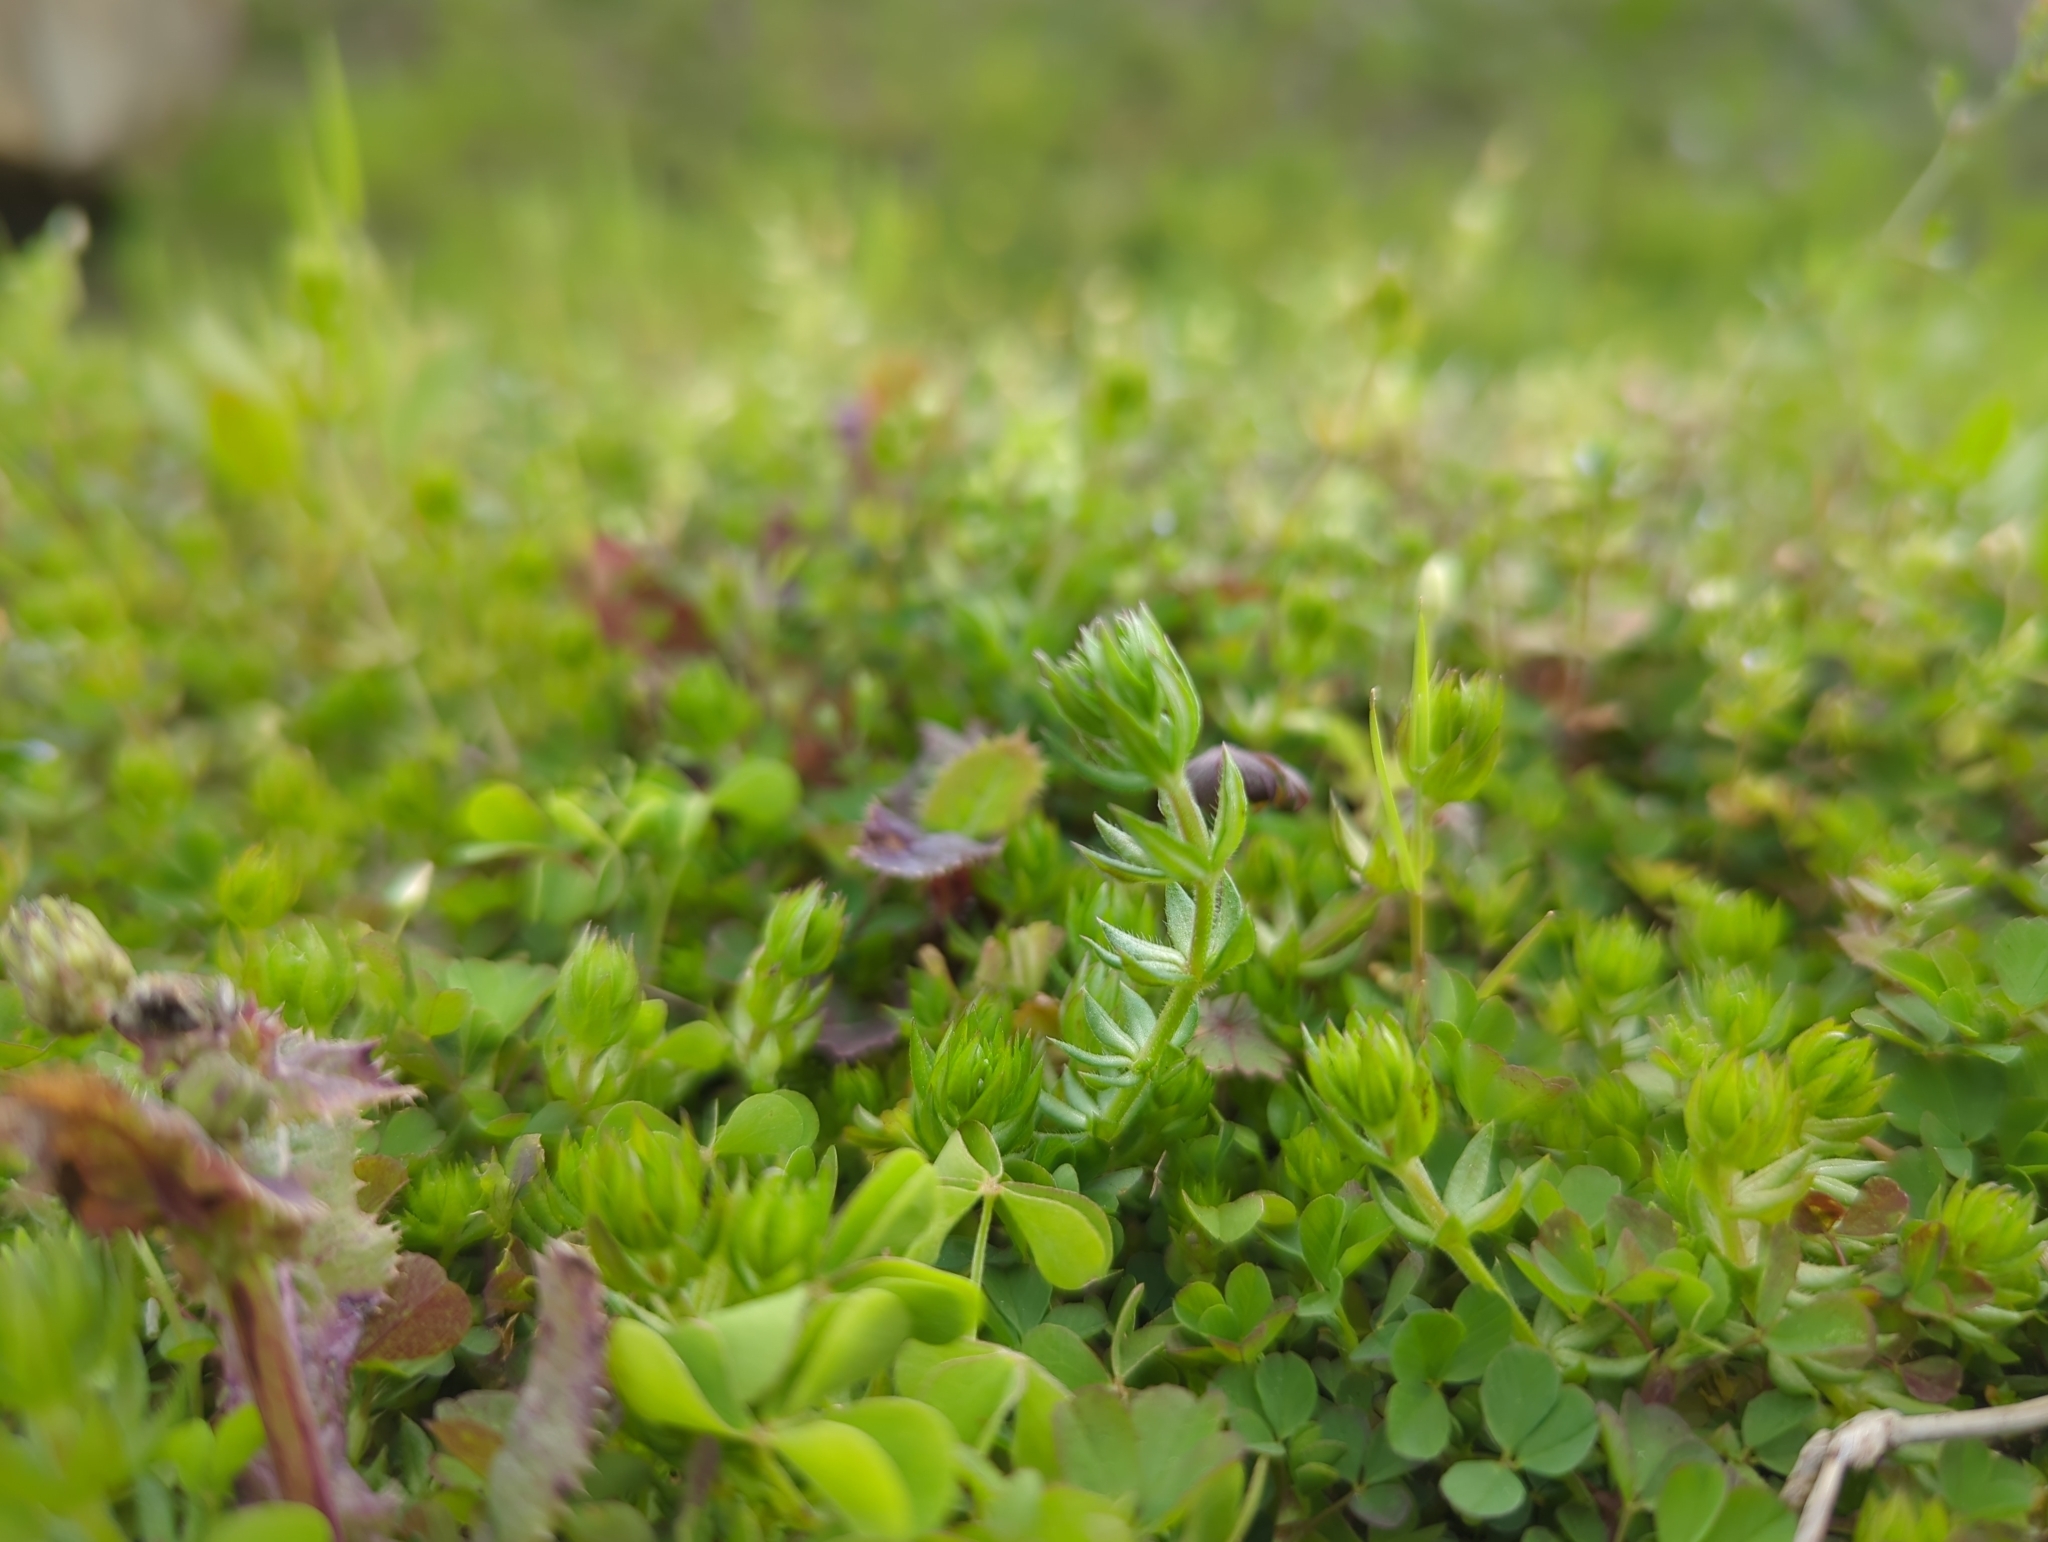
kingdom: Plantae
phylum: Tracheophyta
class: Magnoliopsida
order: Gentianales
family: Rubiaceae
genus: Sherardia
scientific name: Sherardia arvensis
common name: Field madder
